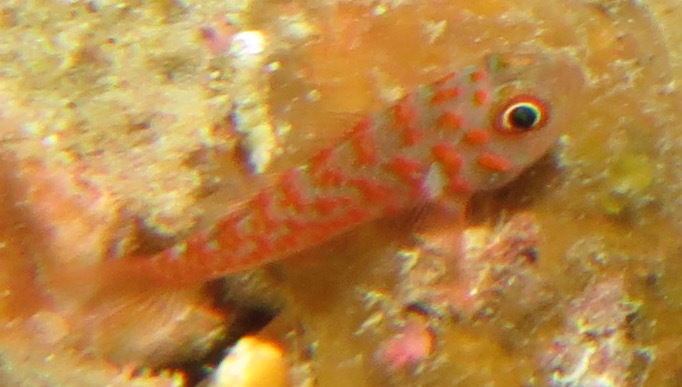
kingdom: Animalia
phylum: Chordata
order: Perciformes
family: Gobiidae
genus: Trimma
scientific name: Trimma annosum
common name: Grey-bearded pygmygoby
